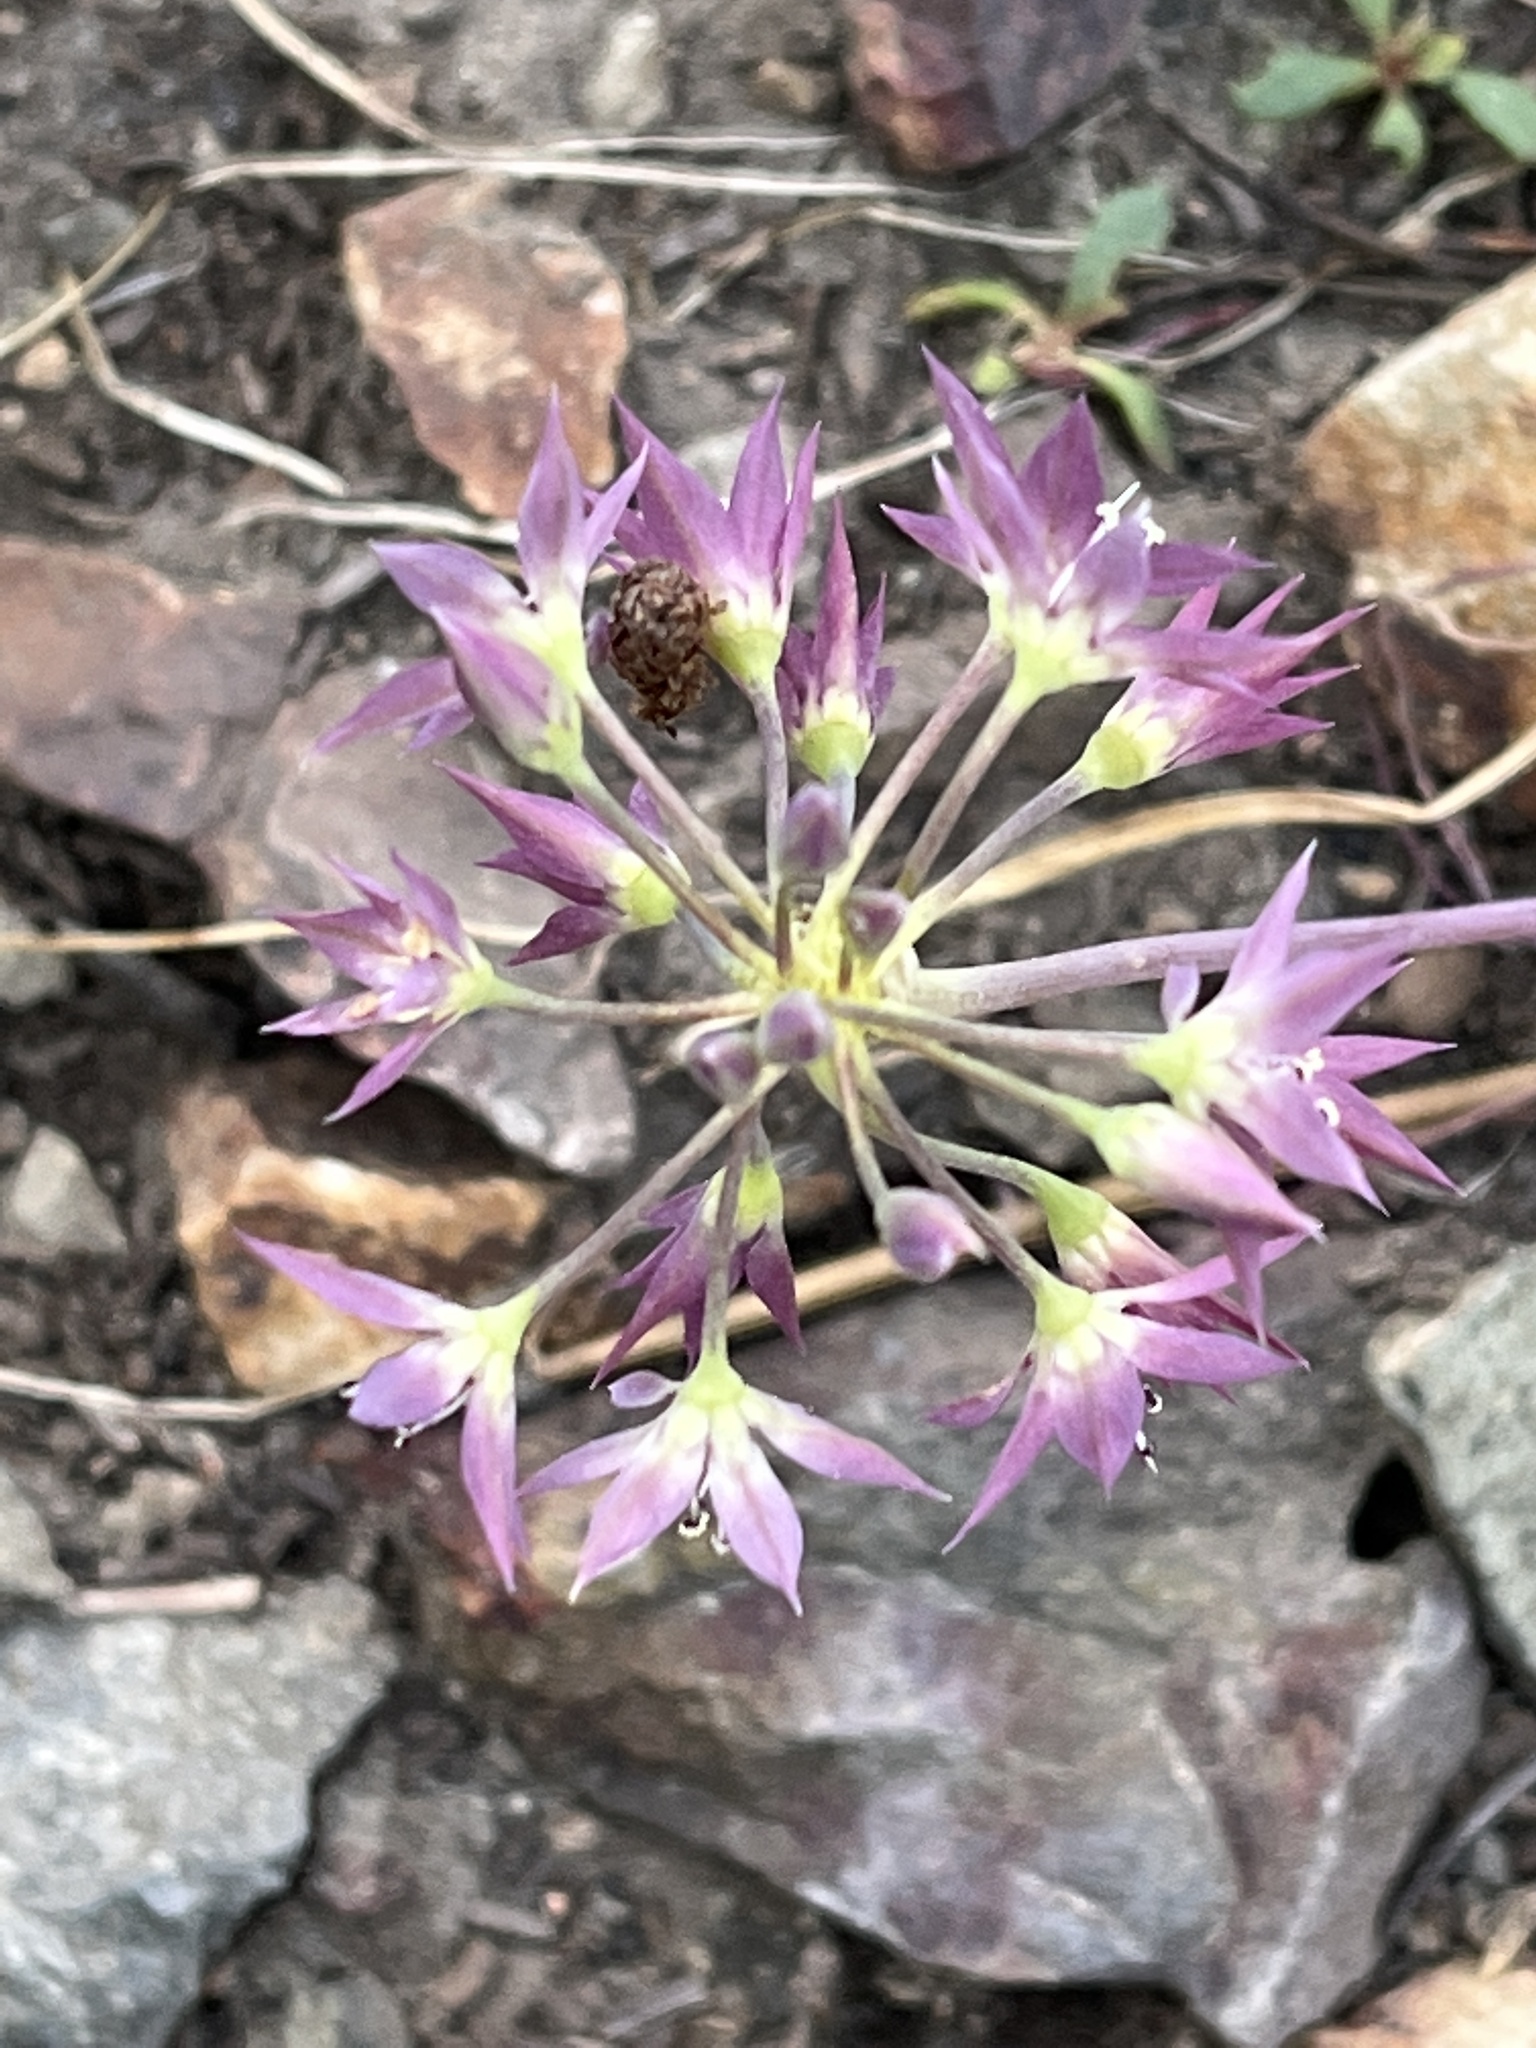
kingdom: Plantae
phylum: Tracheophyta
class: Liliopsida
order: Asparagales
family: Amaryllidaceae
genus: Allium
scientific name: Allium campanulatum
